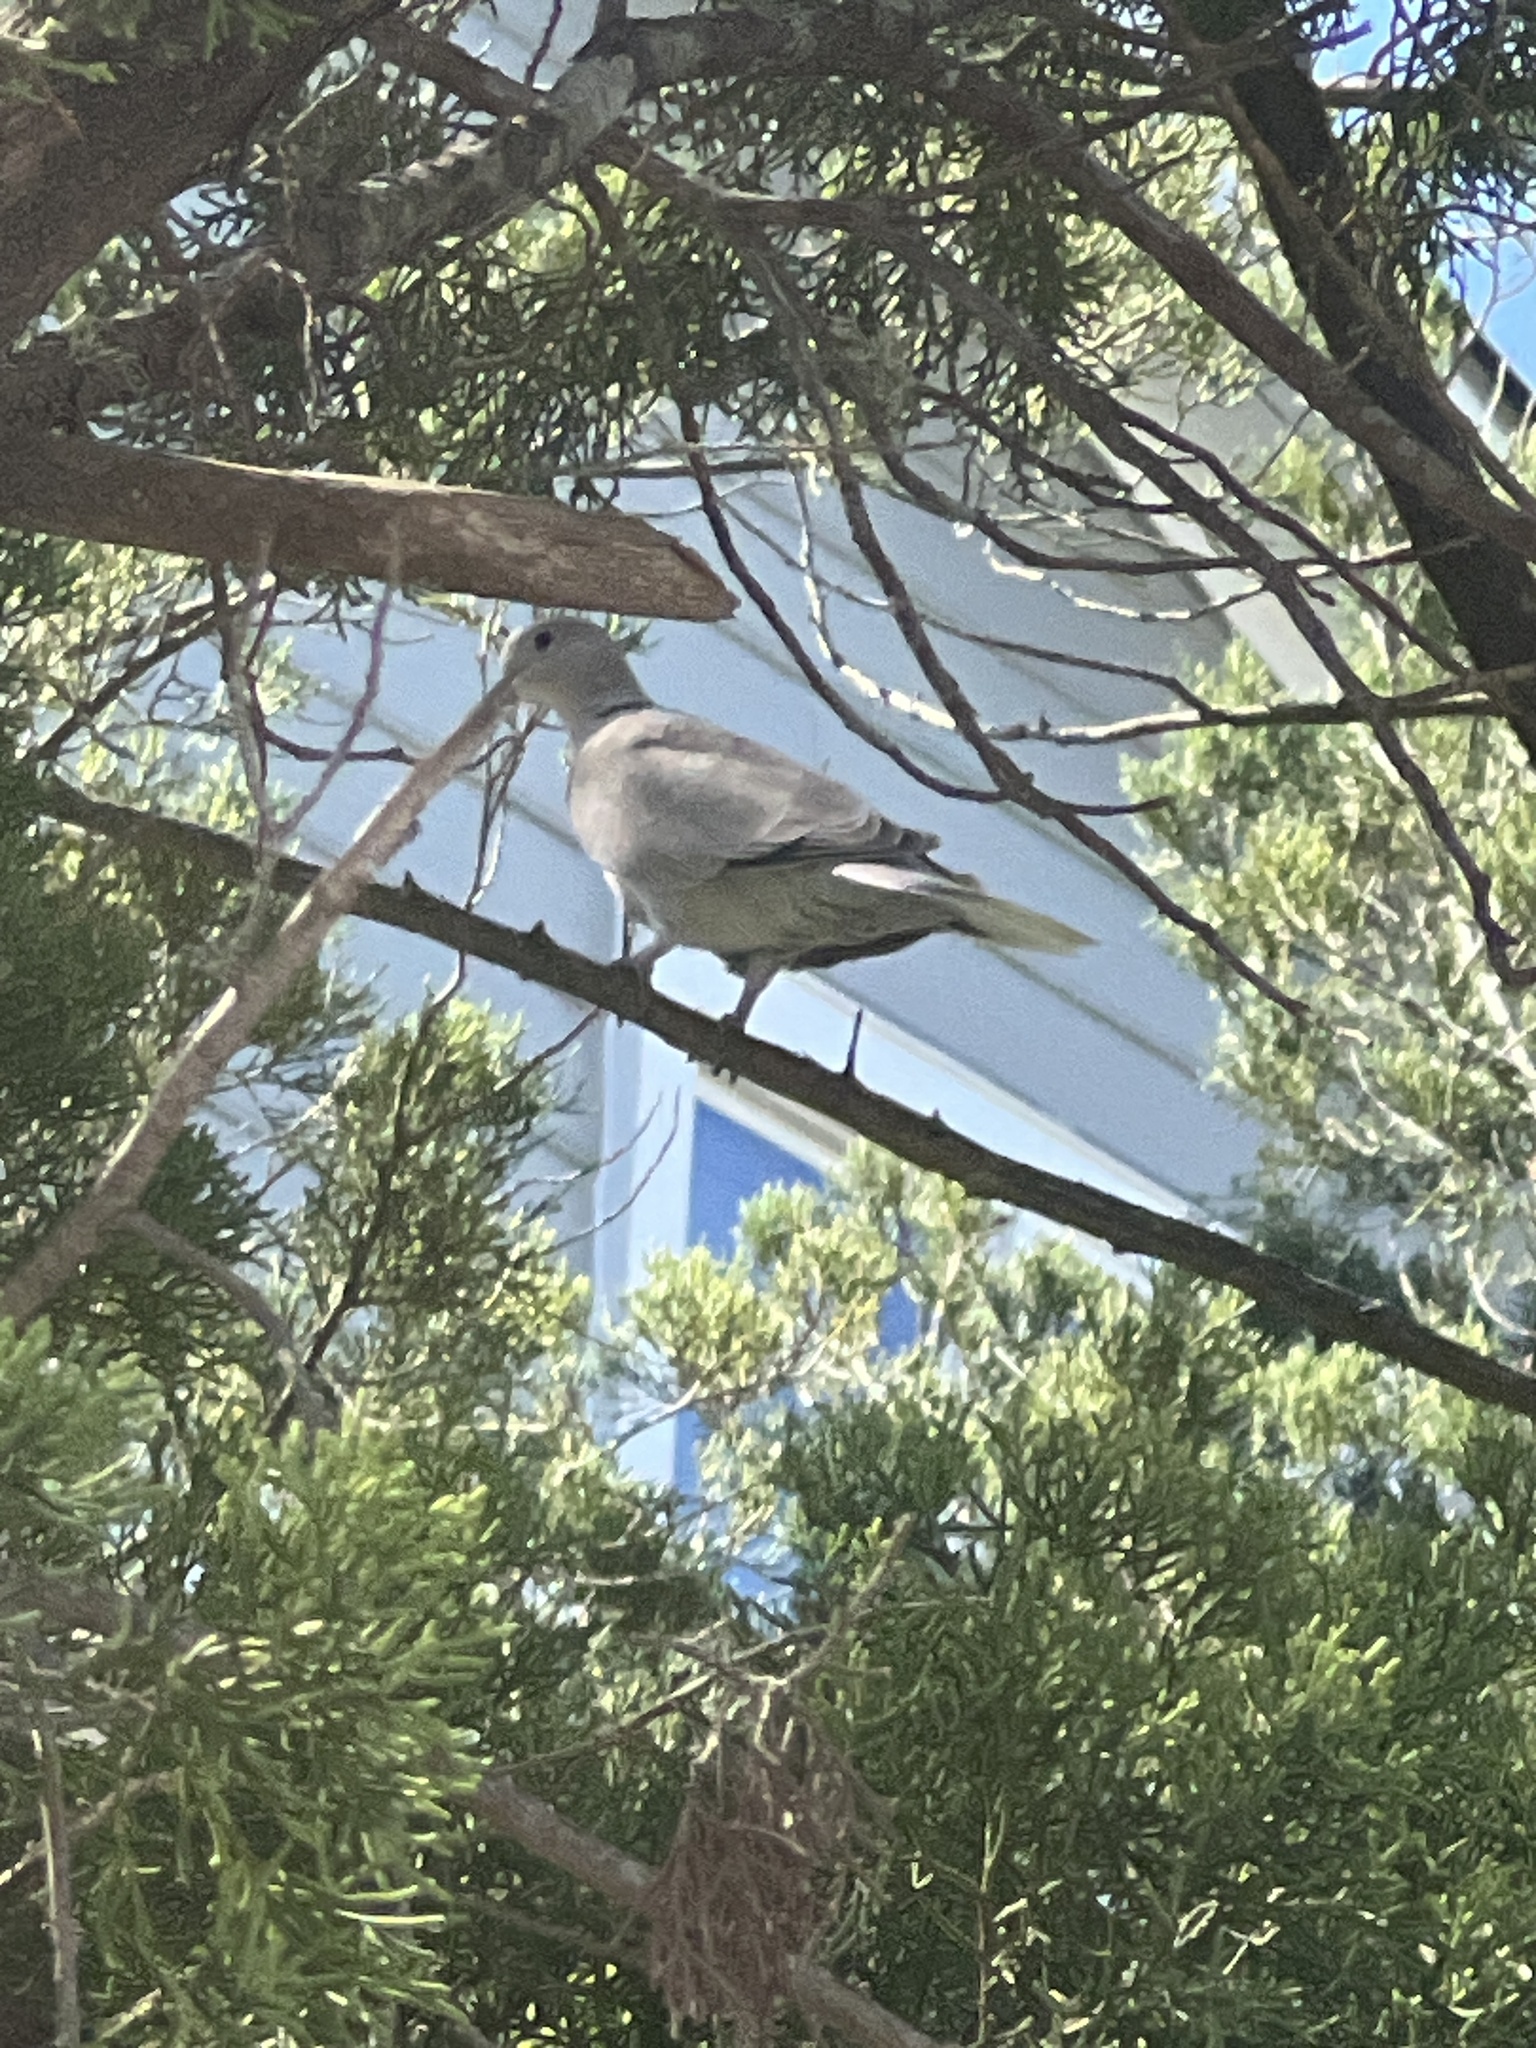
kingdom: Animalia
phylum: Chordata
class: Aves
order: Columbiformes
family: Columbidae
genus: Streptopelia
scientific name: Streptopelia decaocto
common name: Eurasian collared dove
